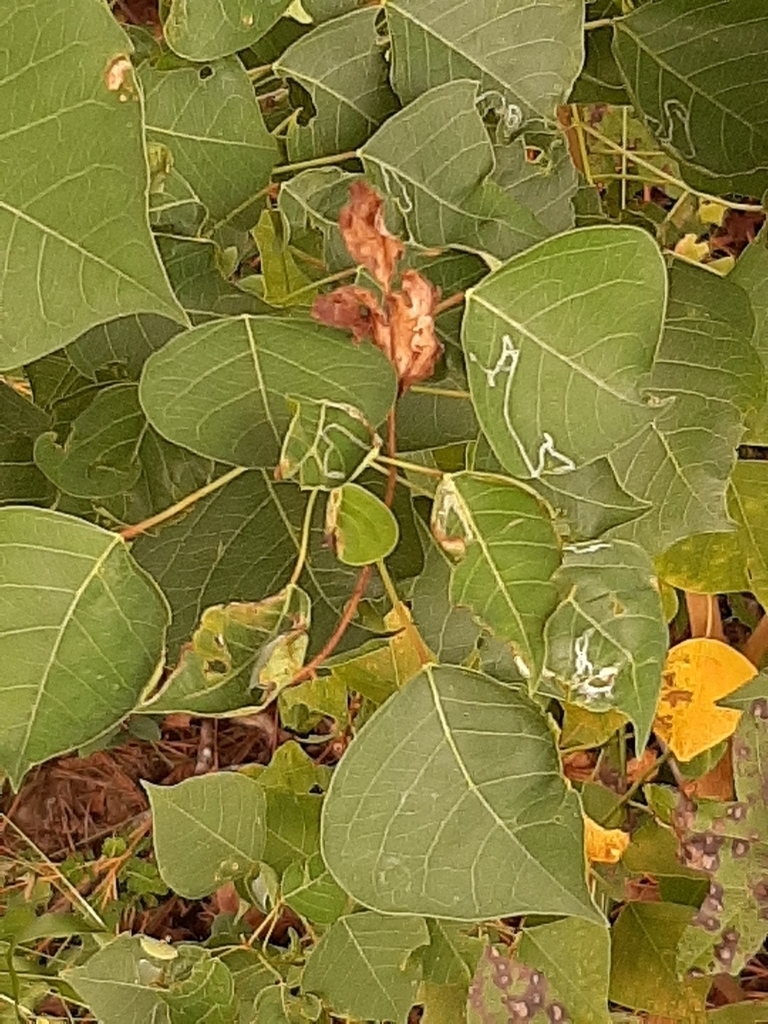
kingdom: Animalia
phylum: Arthropoda
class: Insecta
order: Lepidoptera
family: Gracillariidae
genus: Caloptilia
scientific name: Caloptilia triadicae
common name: Tallow leaf roller
